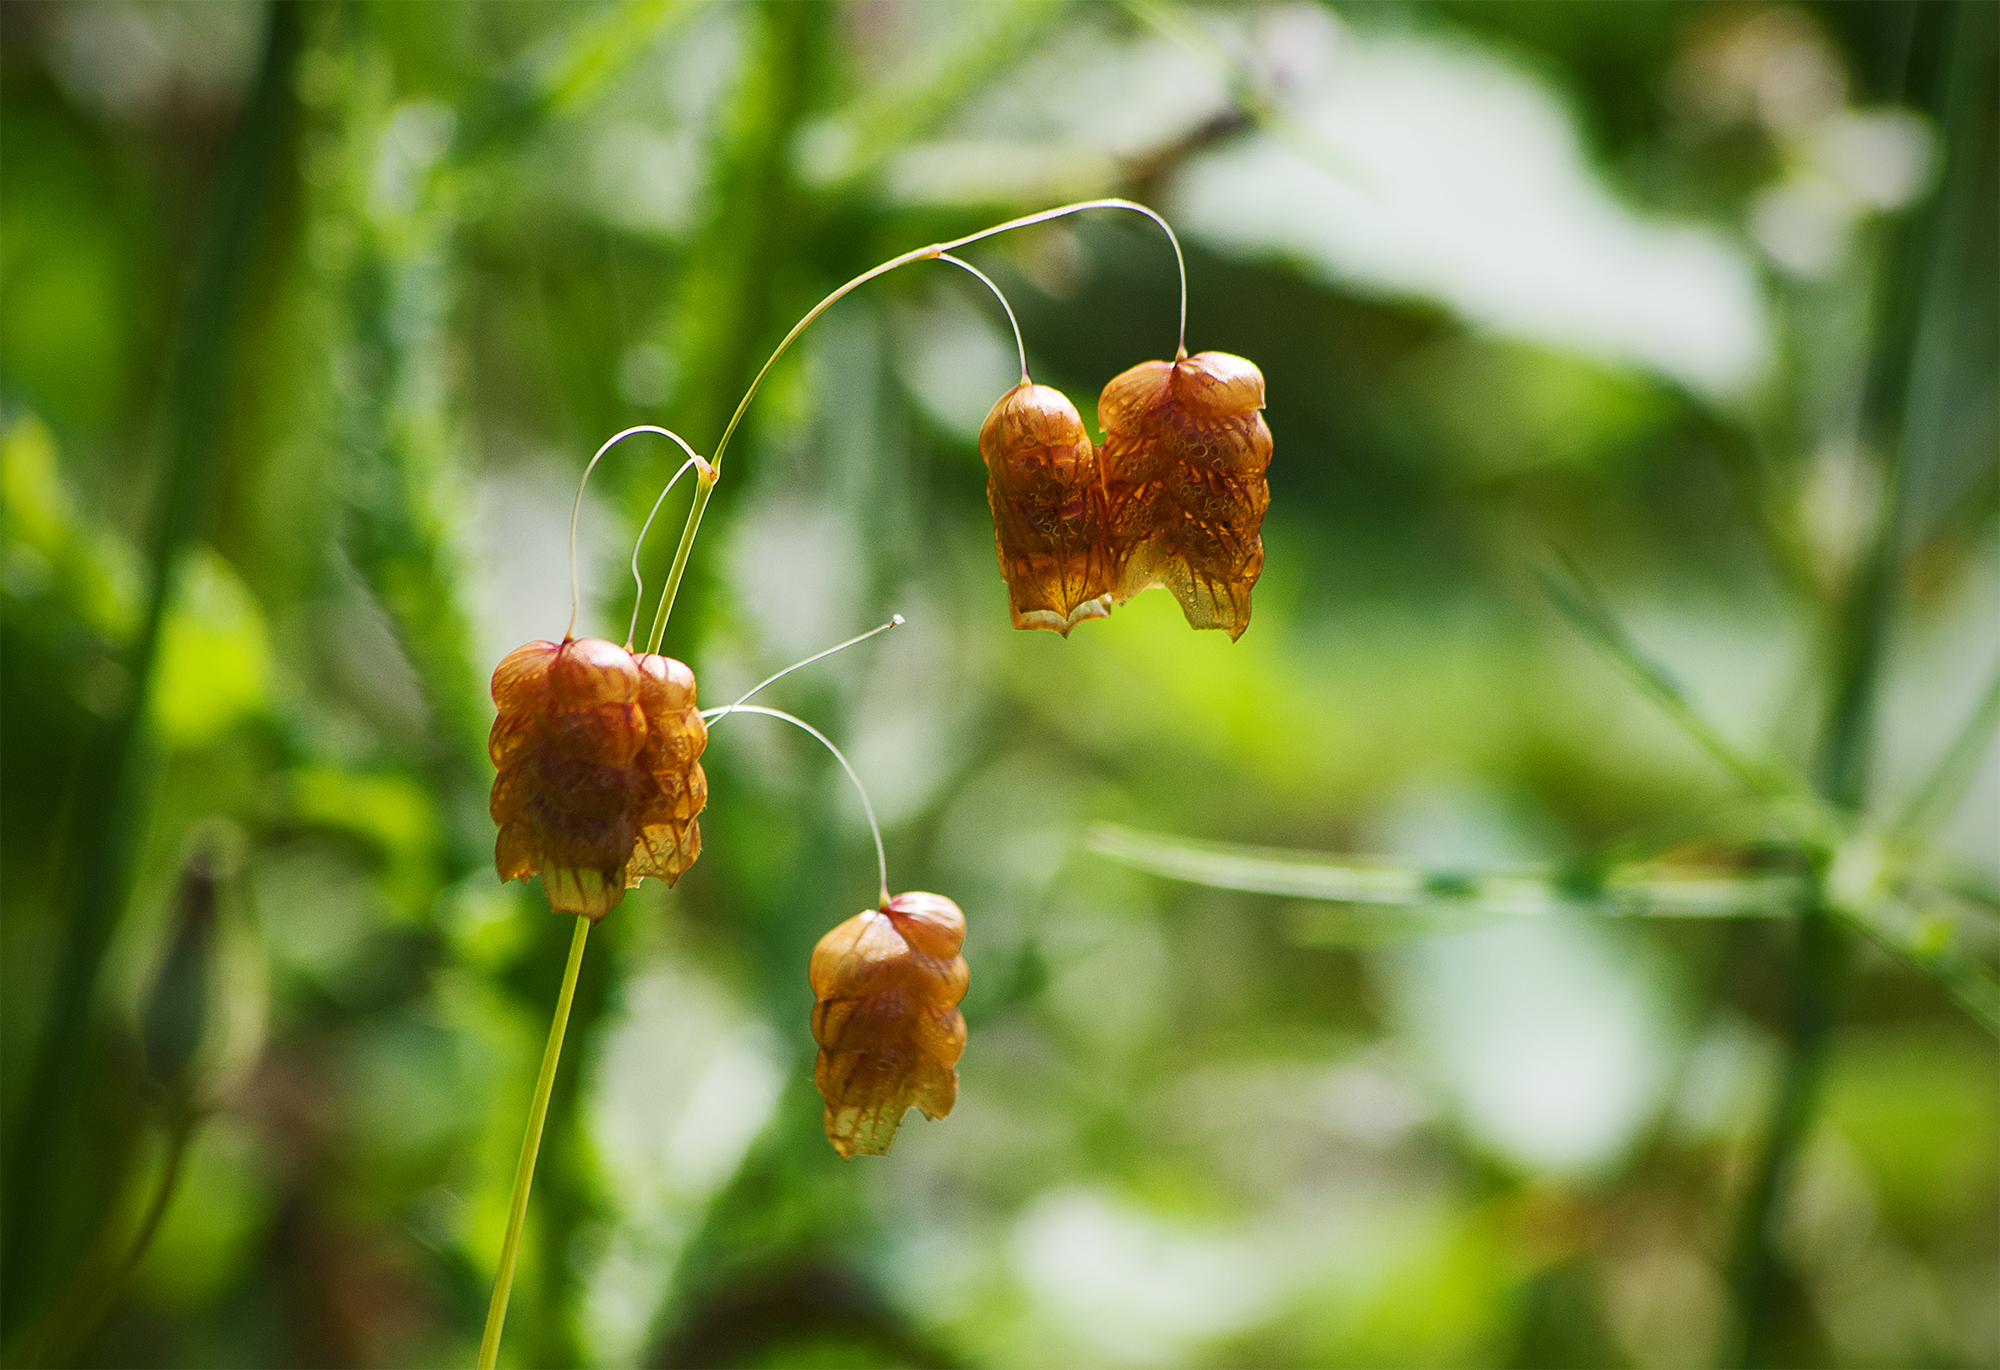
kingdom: Plantae
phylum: Tracheophyta
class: Liliopsida
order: Poales
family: Poaceae
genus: Briza
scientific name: Briza maxima
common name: Big quakinggrass
